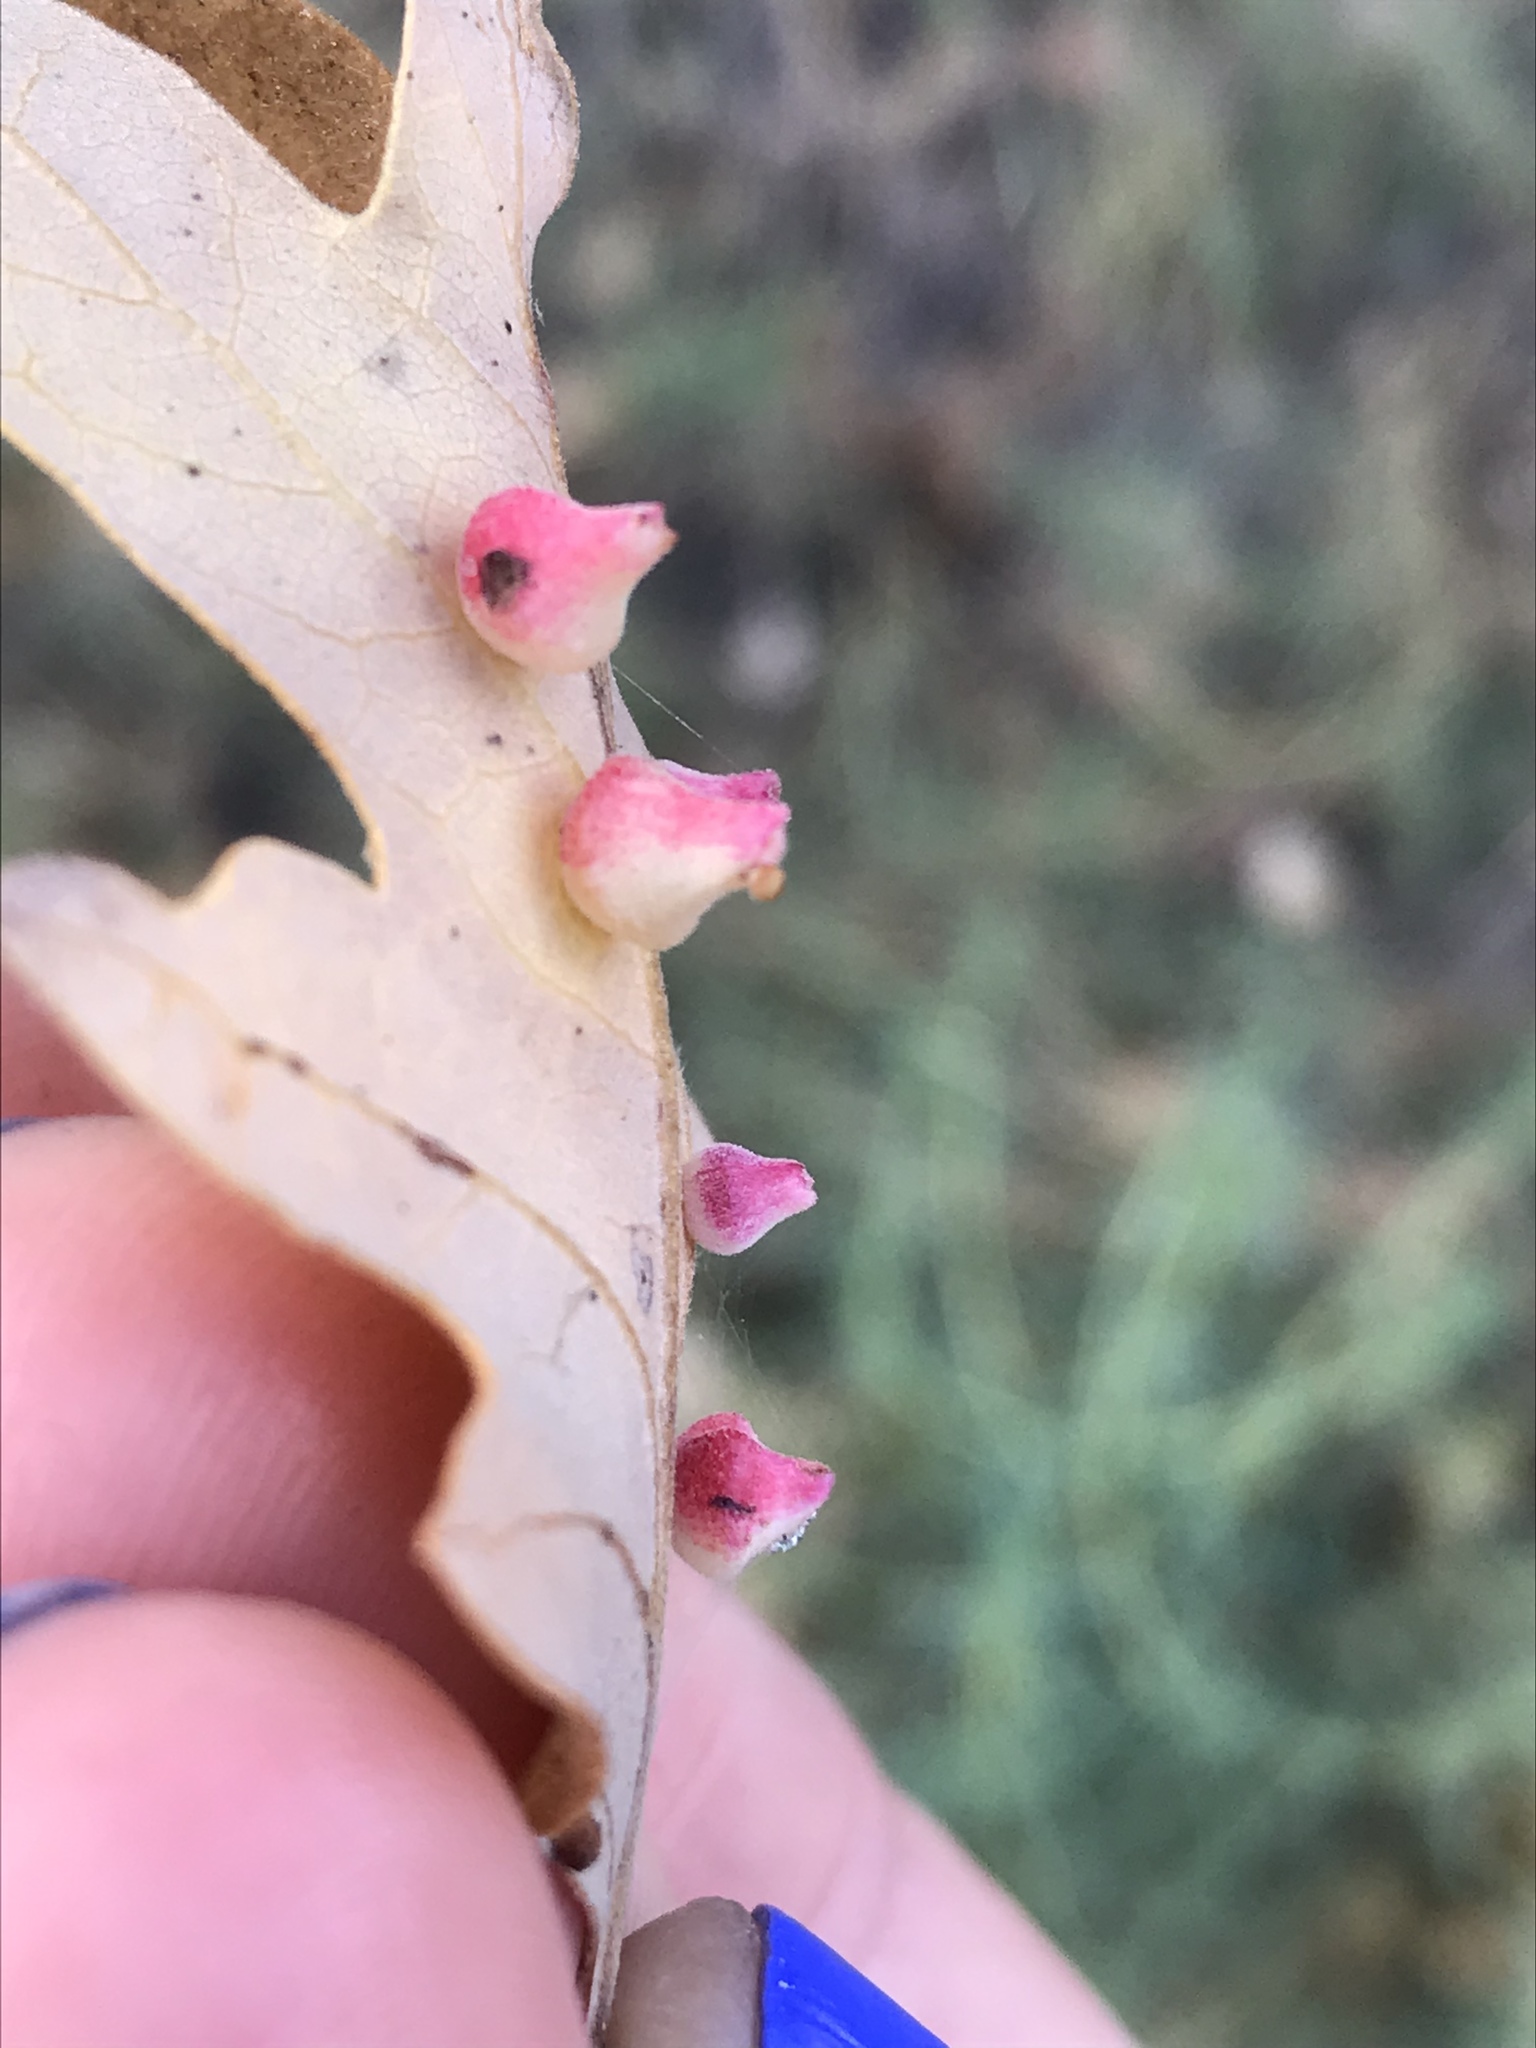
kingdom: Animalia
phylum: Arthropoda
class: Insecta
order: Hymenoptera
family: Cynipidae
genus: Andricus
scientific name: Andricus
